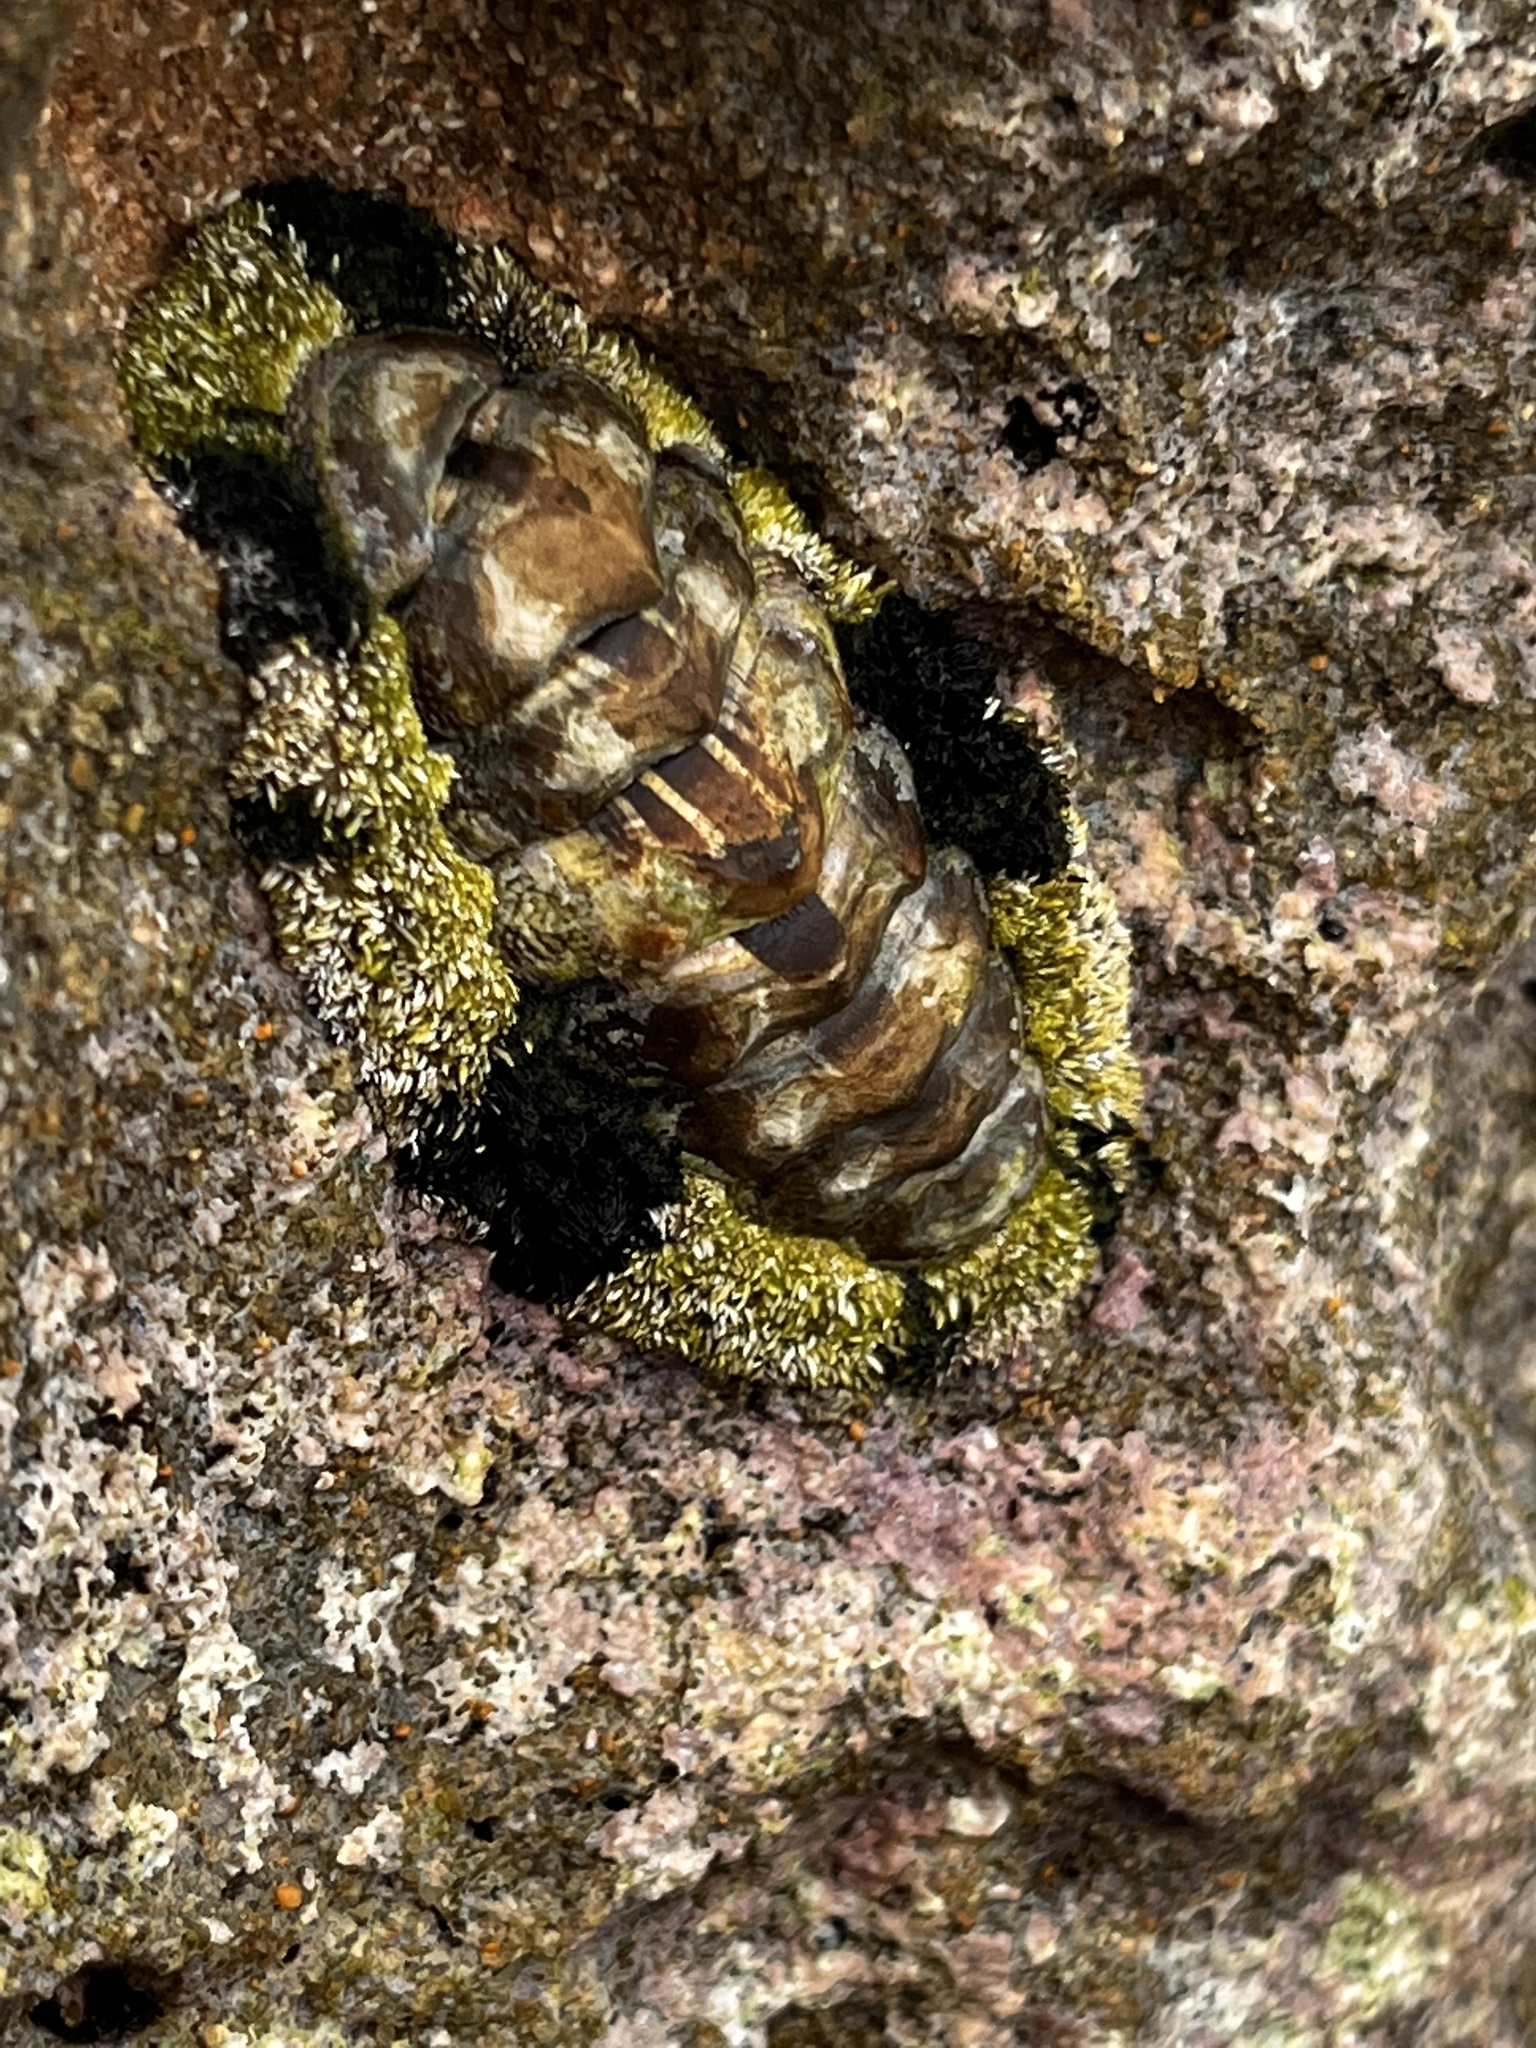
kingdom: Animalia
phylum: Mollusca
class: Polyplacophora
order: Chitonida
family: Chitonidae
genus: Acanthopleura
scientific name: Acanthopleura granulata
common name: West indian fuzzy chiton
